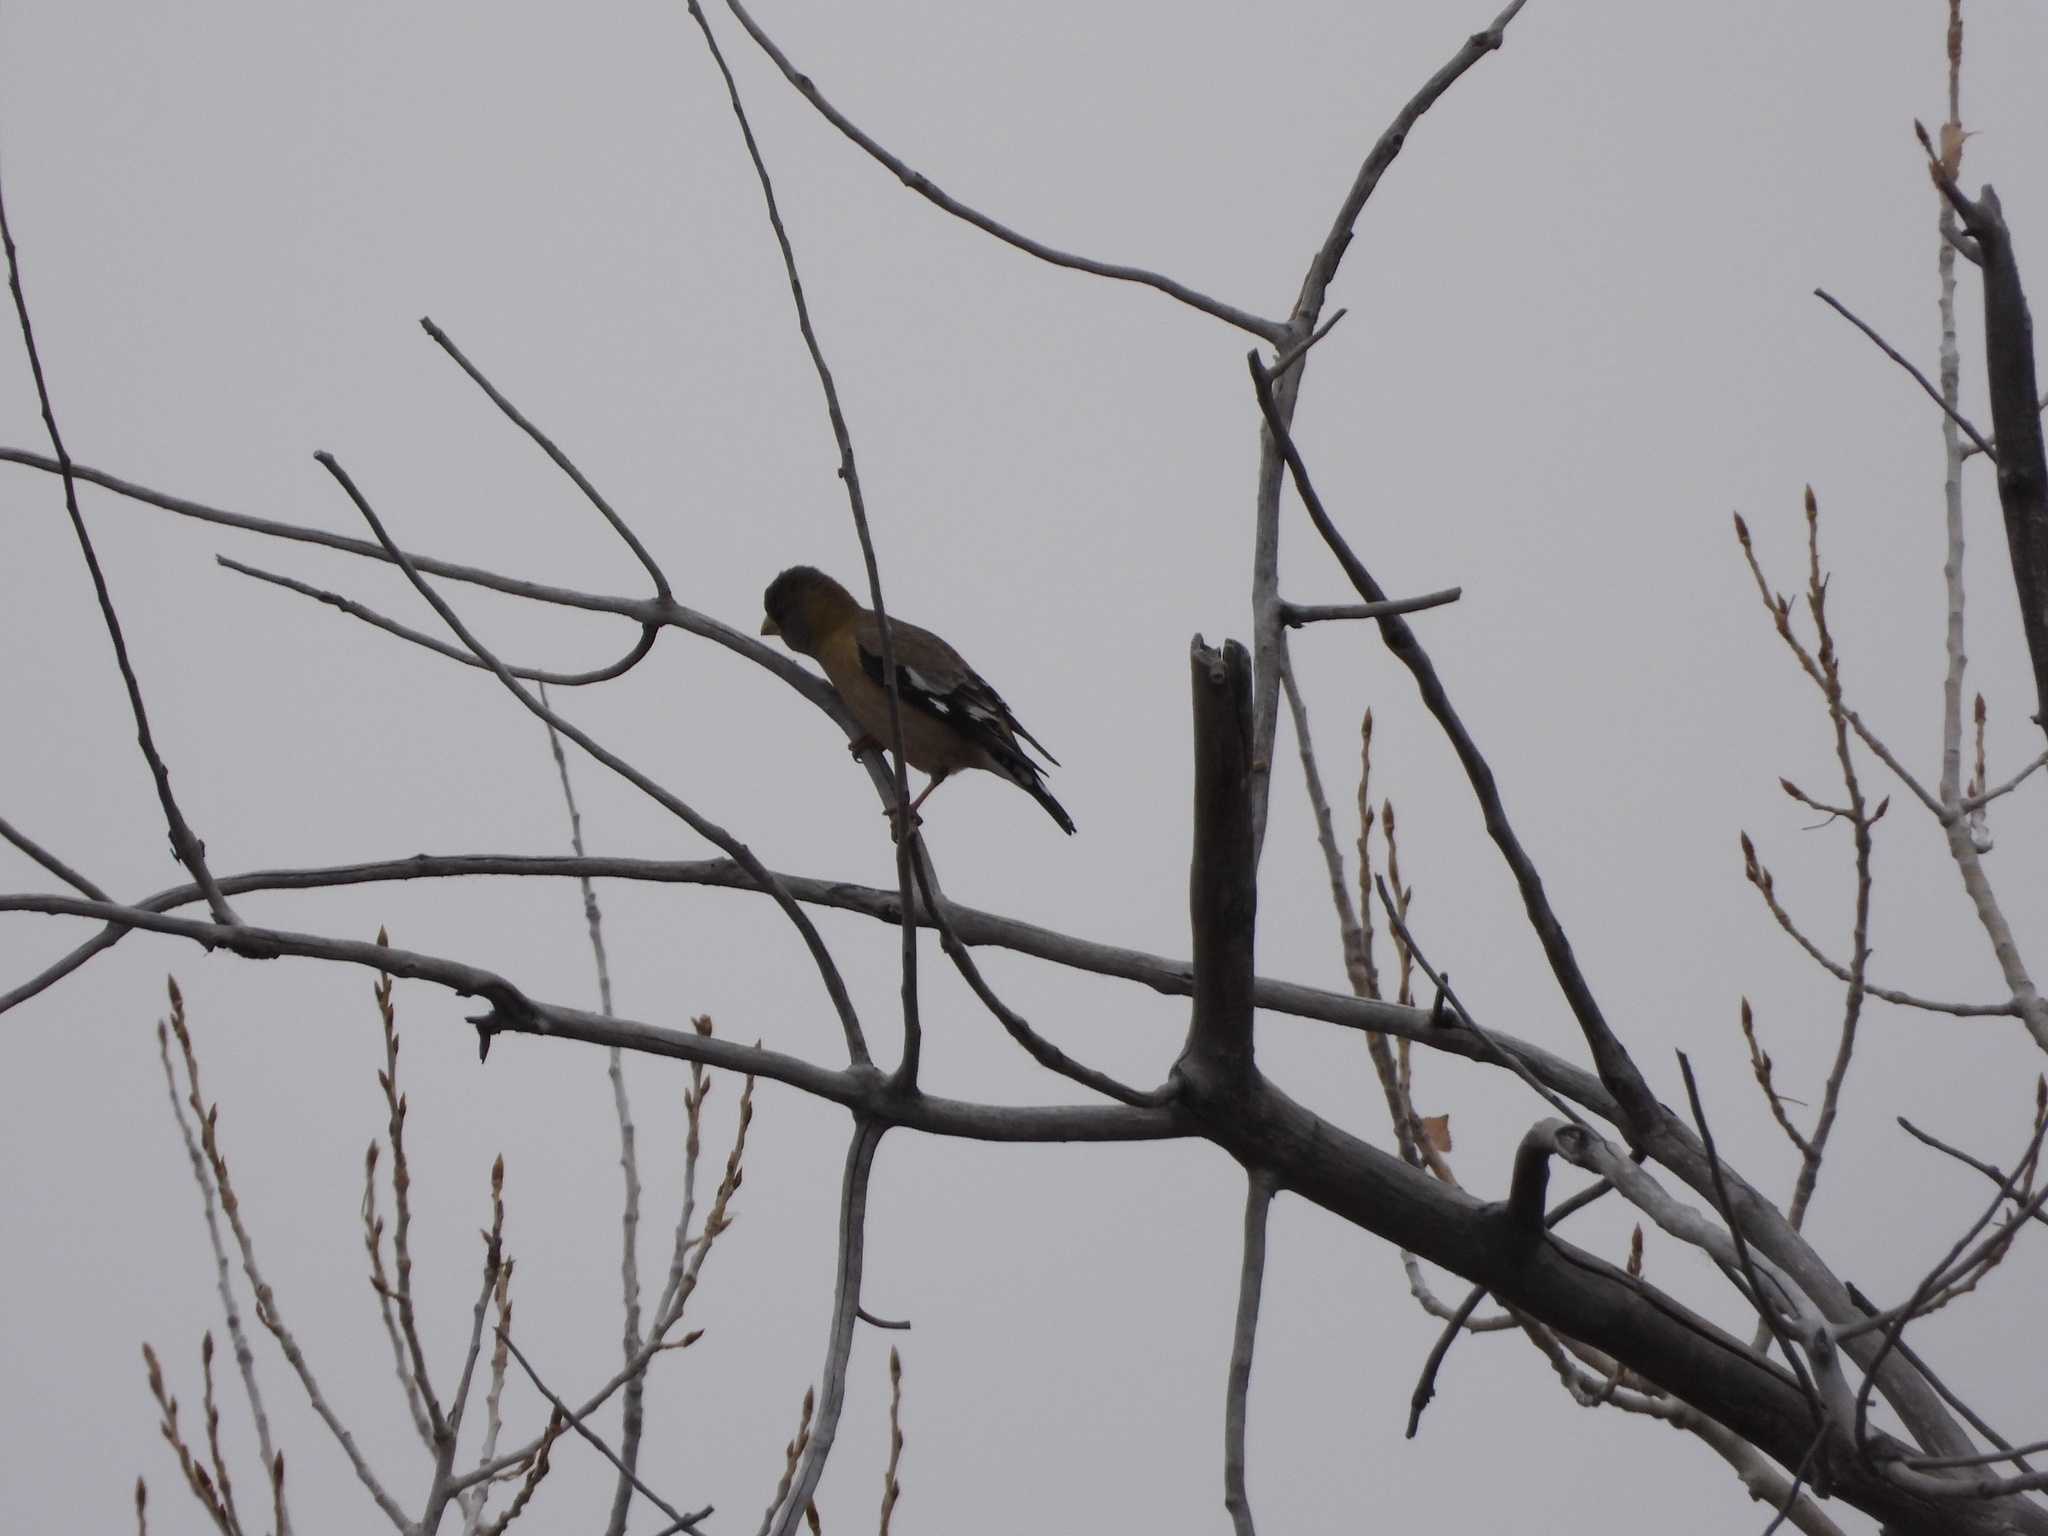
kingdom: Animalia
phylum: Chordata
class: Aves
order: Passeriformes
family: Fringillidae
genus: Hesperiphona
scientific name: Hesperiphona vespertina
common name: Evening grosbeak
